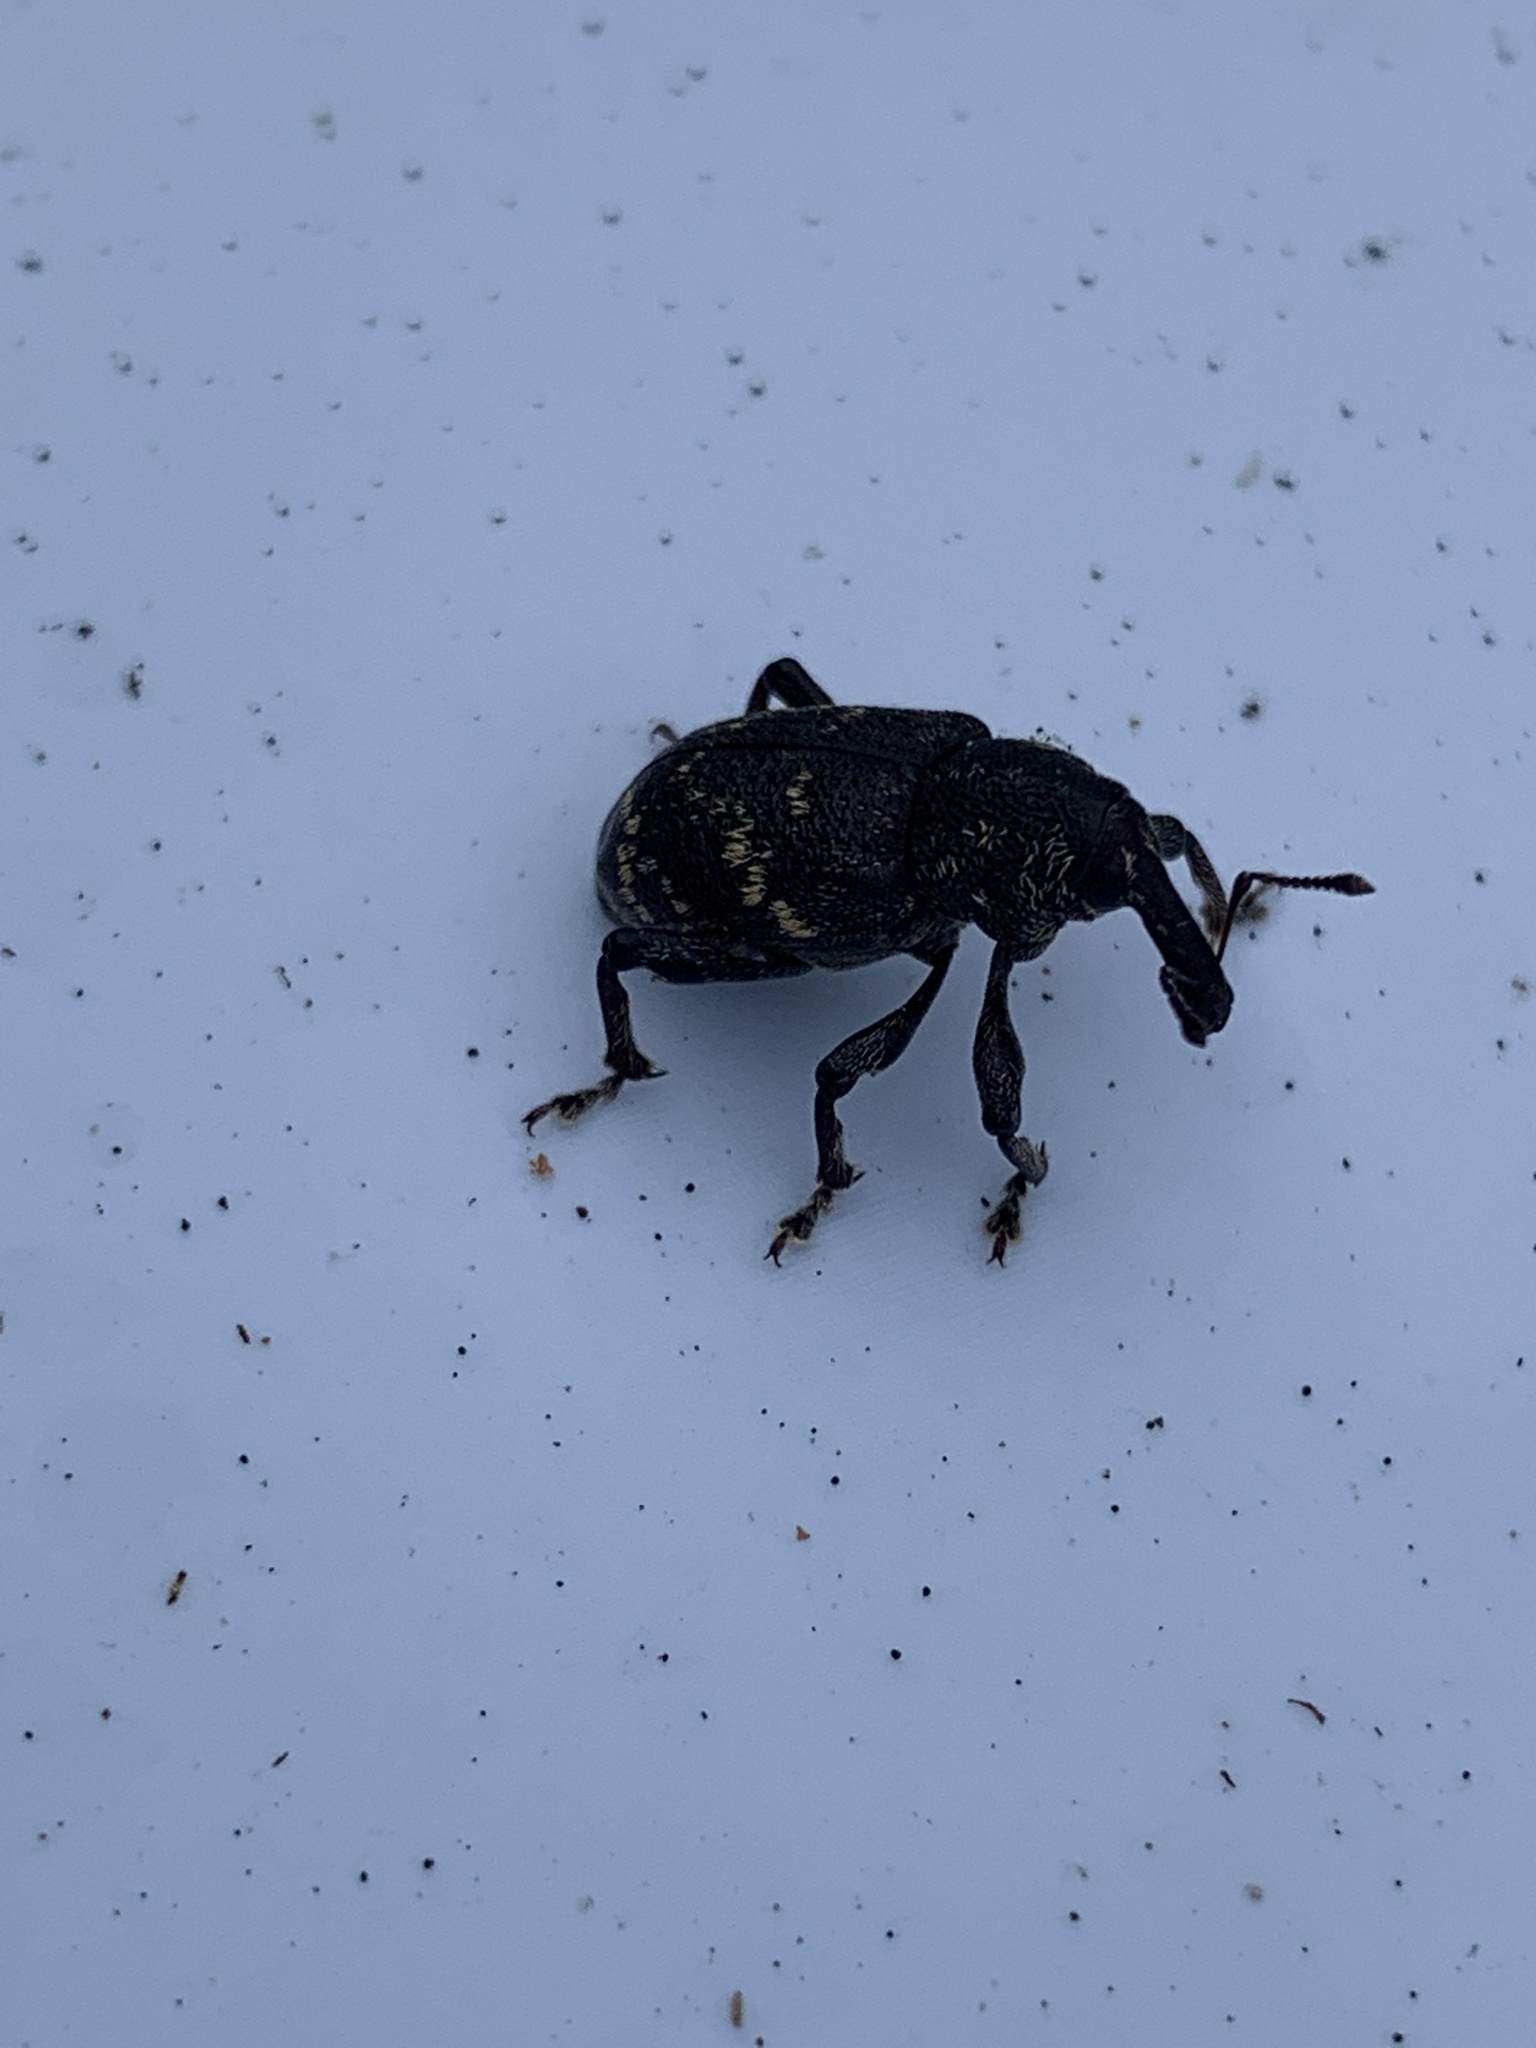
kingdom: Animalia
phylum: Arthropoda
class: Insecta
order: Coleoptera
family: Curculionidae
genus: Hylobius
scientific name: Hylobius abietis
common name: Large pine weevil
